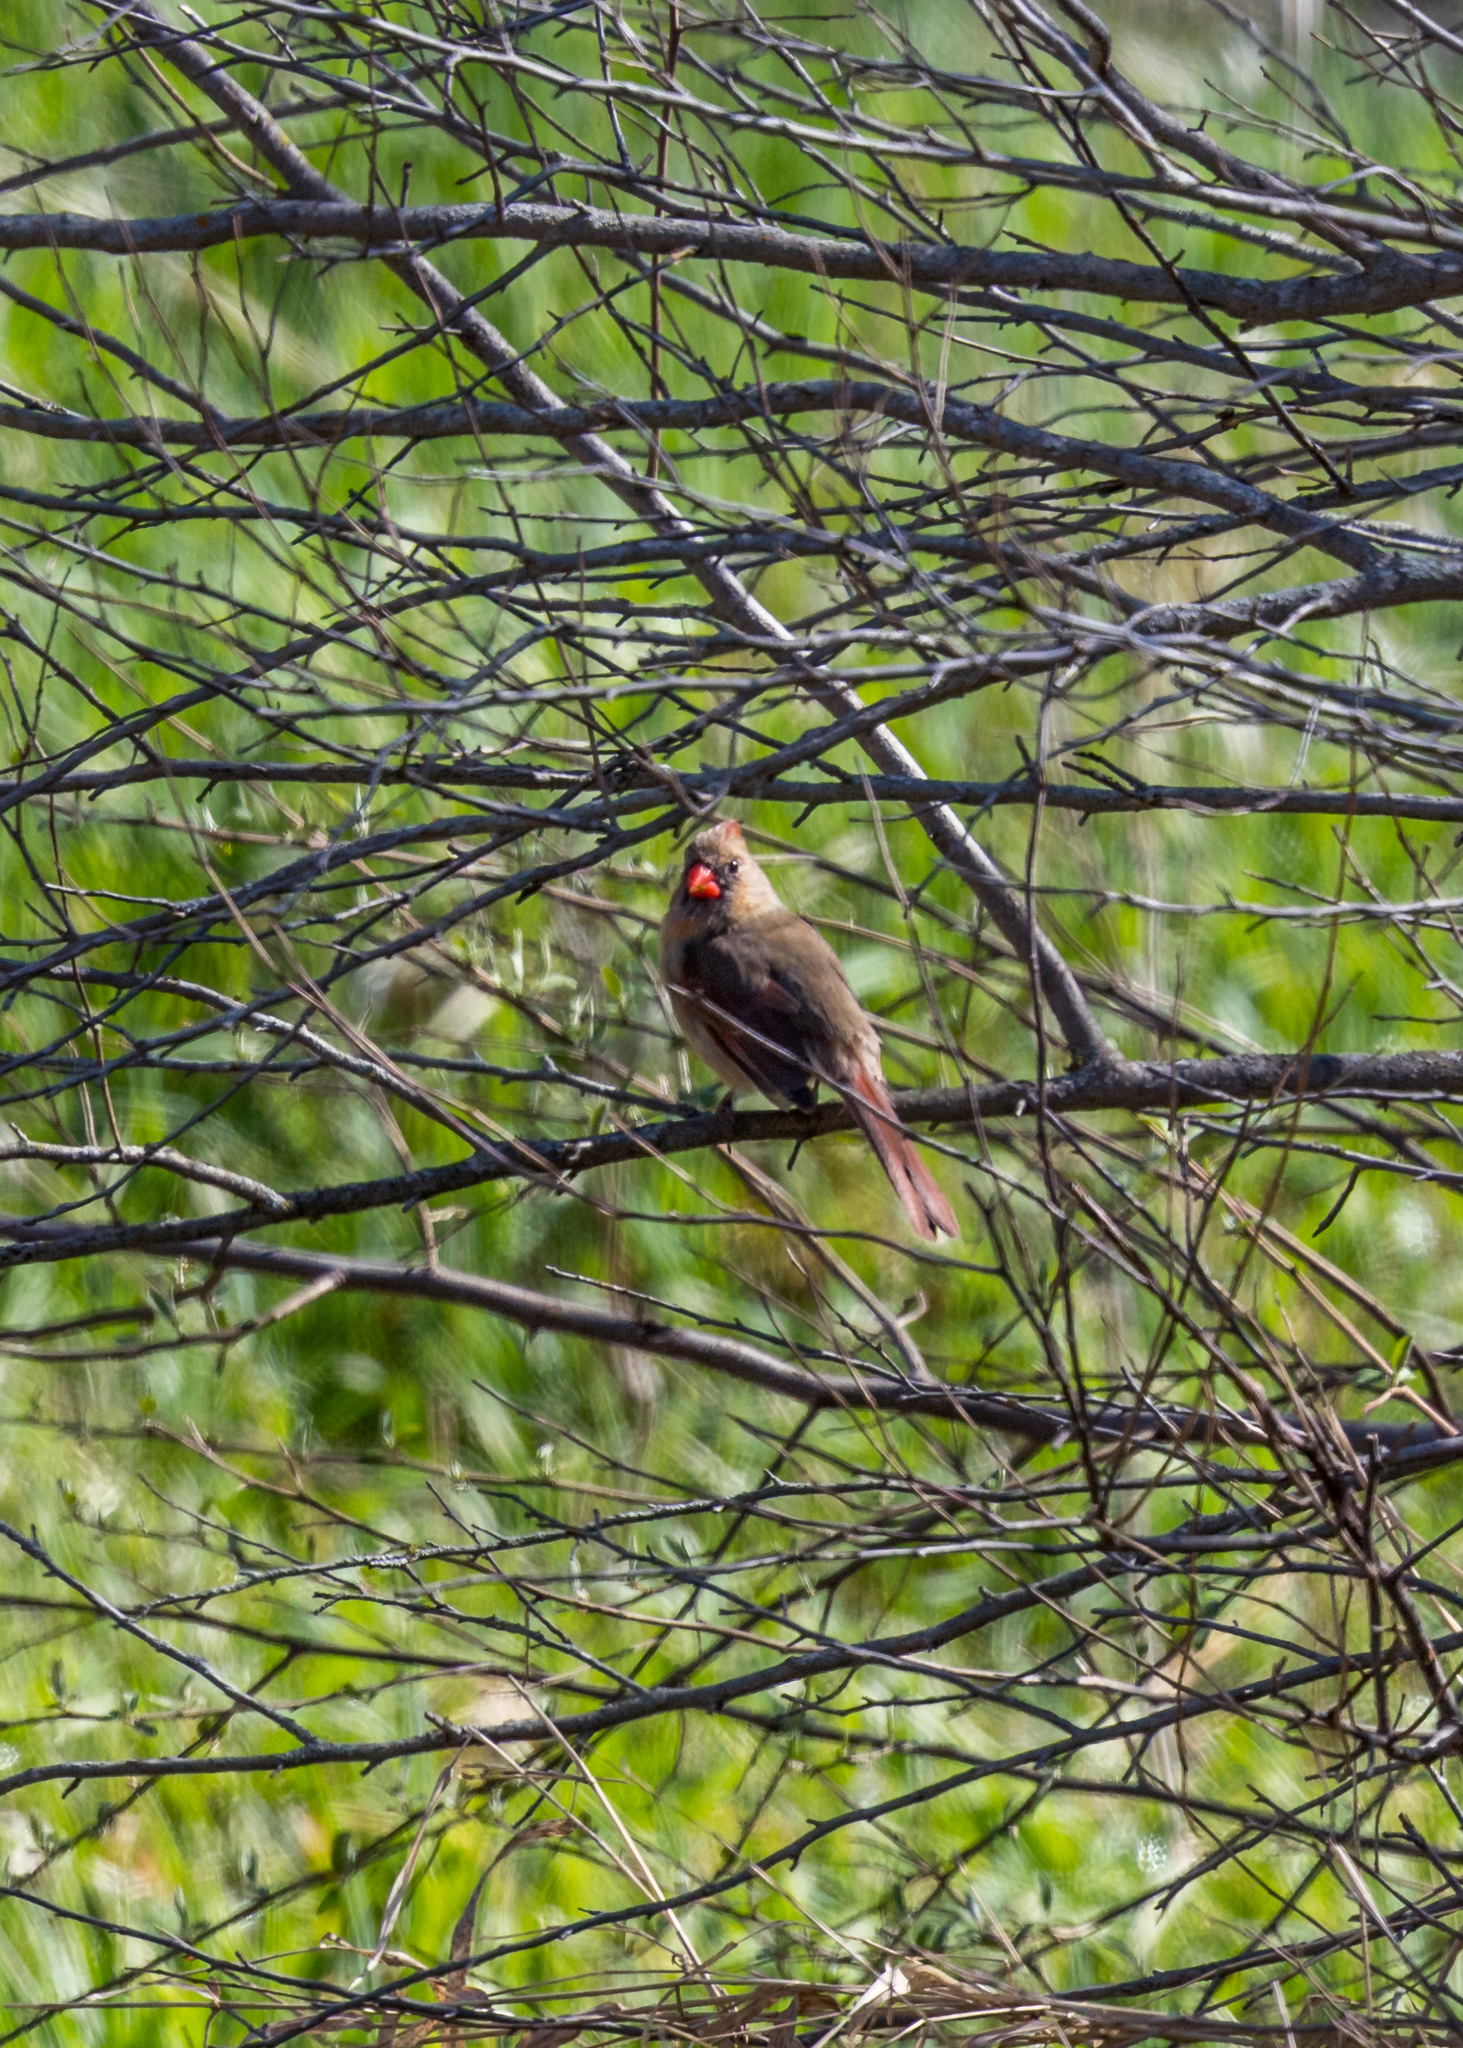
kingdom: Animalia
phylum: Chordata
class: Aves
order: Passeriformes
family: Cardinalidae
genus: Cardinalis
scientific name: Cardinalis cardinalis
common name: Northern cardinal
